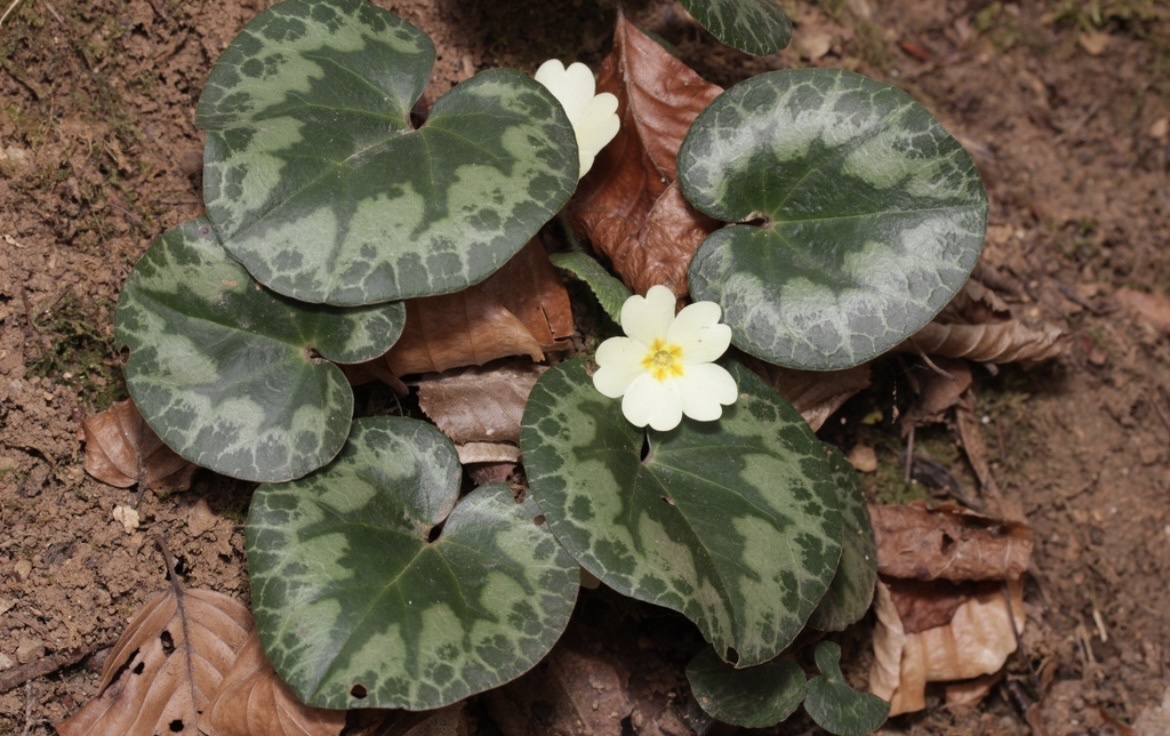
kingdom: Plantae
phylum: Tracheophyta
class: Magnoliopsida
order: Ericales
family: Primulaceae
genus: Cyclamen
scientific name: Cyclamen purpurascens
